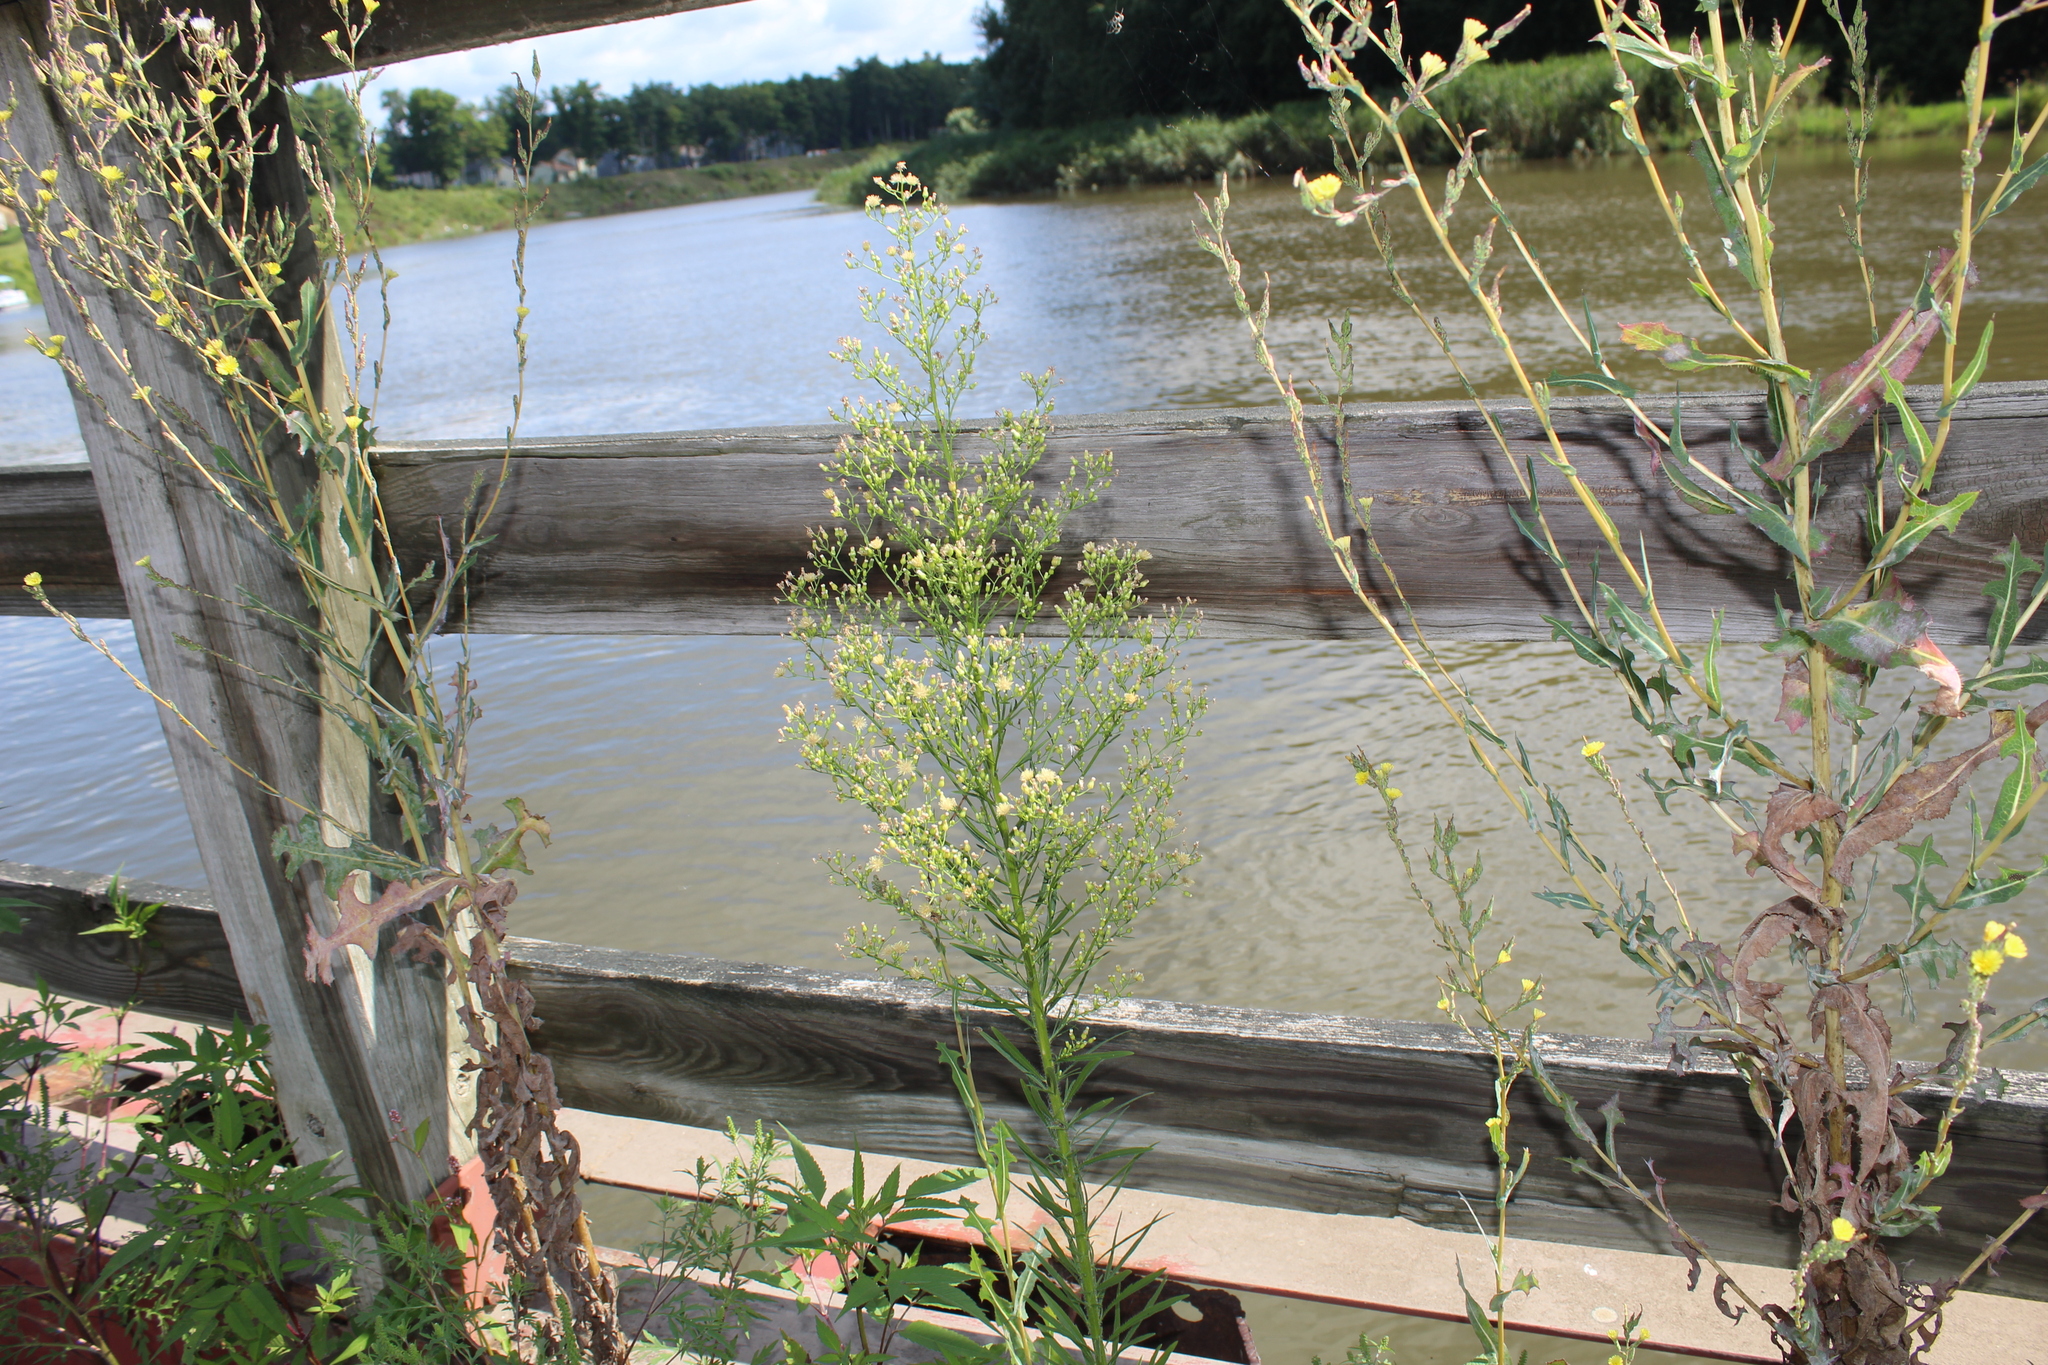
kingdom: Plantae
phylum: Tracheophyta
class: Magnoliopsida
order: Asterales
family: Asteraceae
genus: Erigeron
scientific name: Erigeron canadensis
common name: Canadian fleabane
